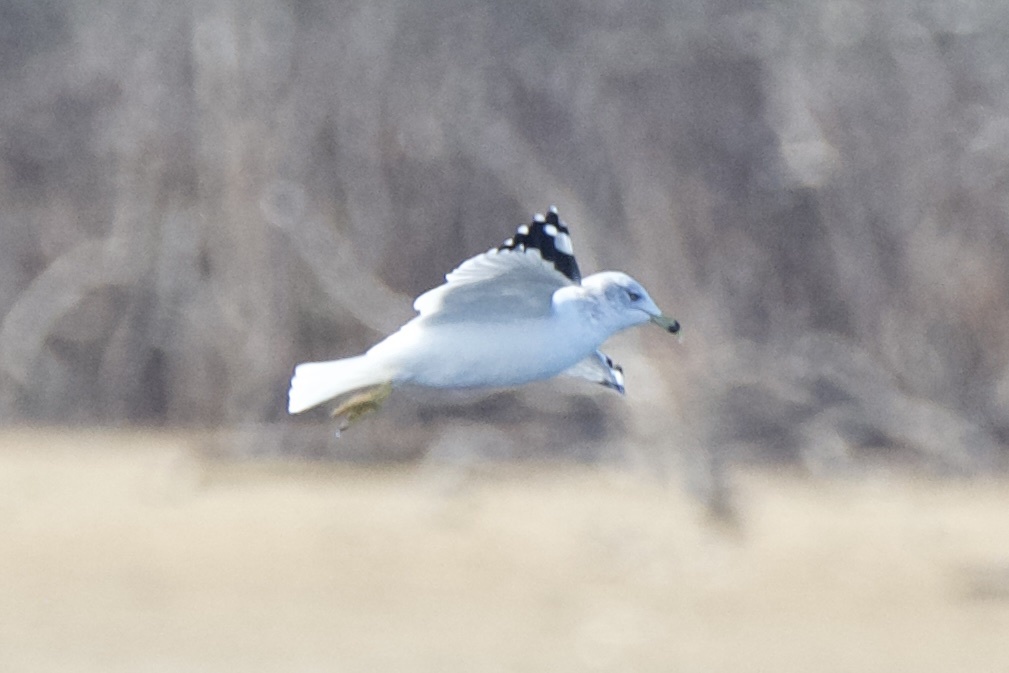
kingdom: Animalia
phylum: Chordata
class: Aves
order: Charadriiformes
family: Laridae
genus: Larus
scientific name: Larus delawarensis
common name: Ring-billed gull
